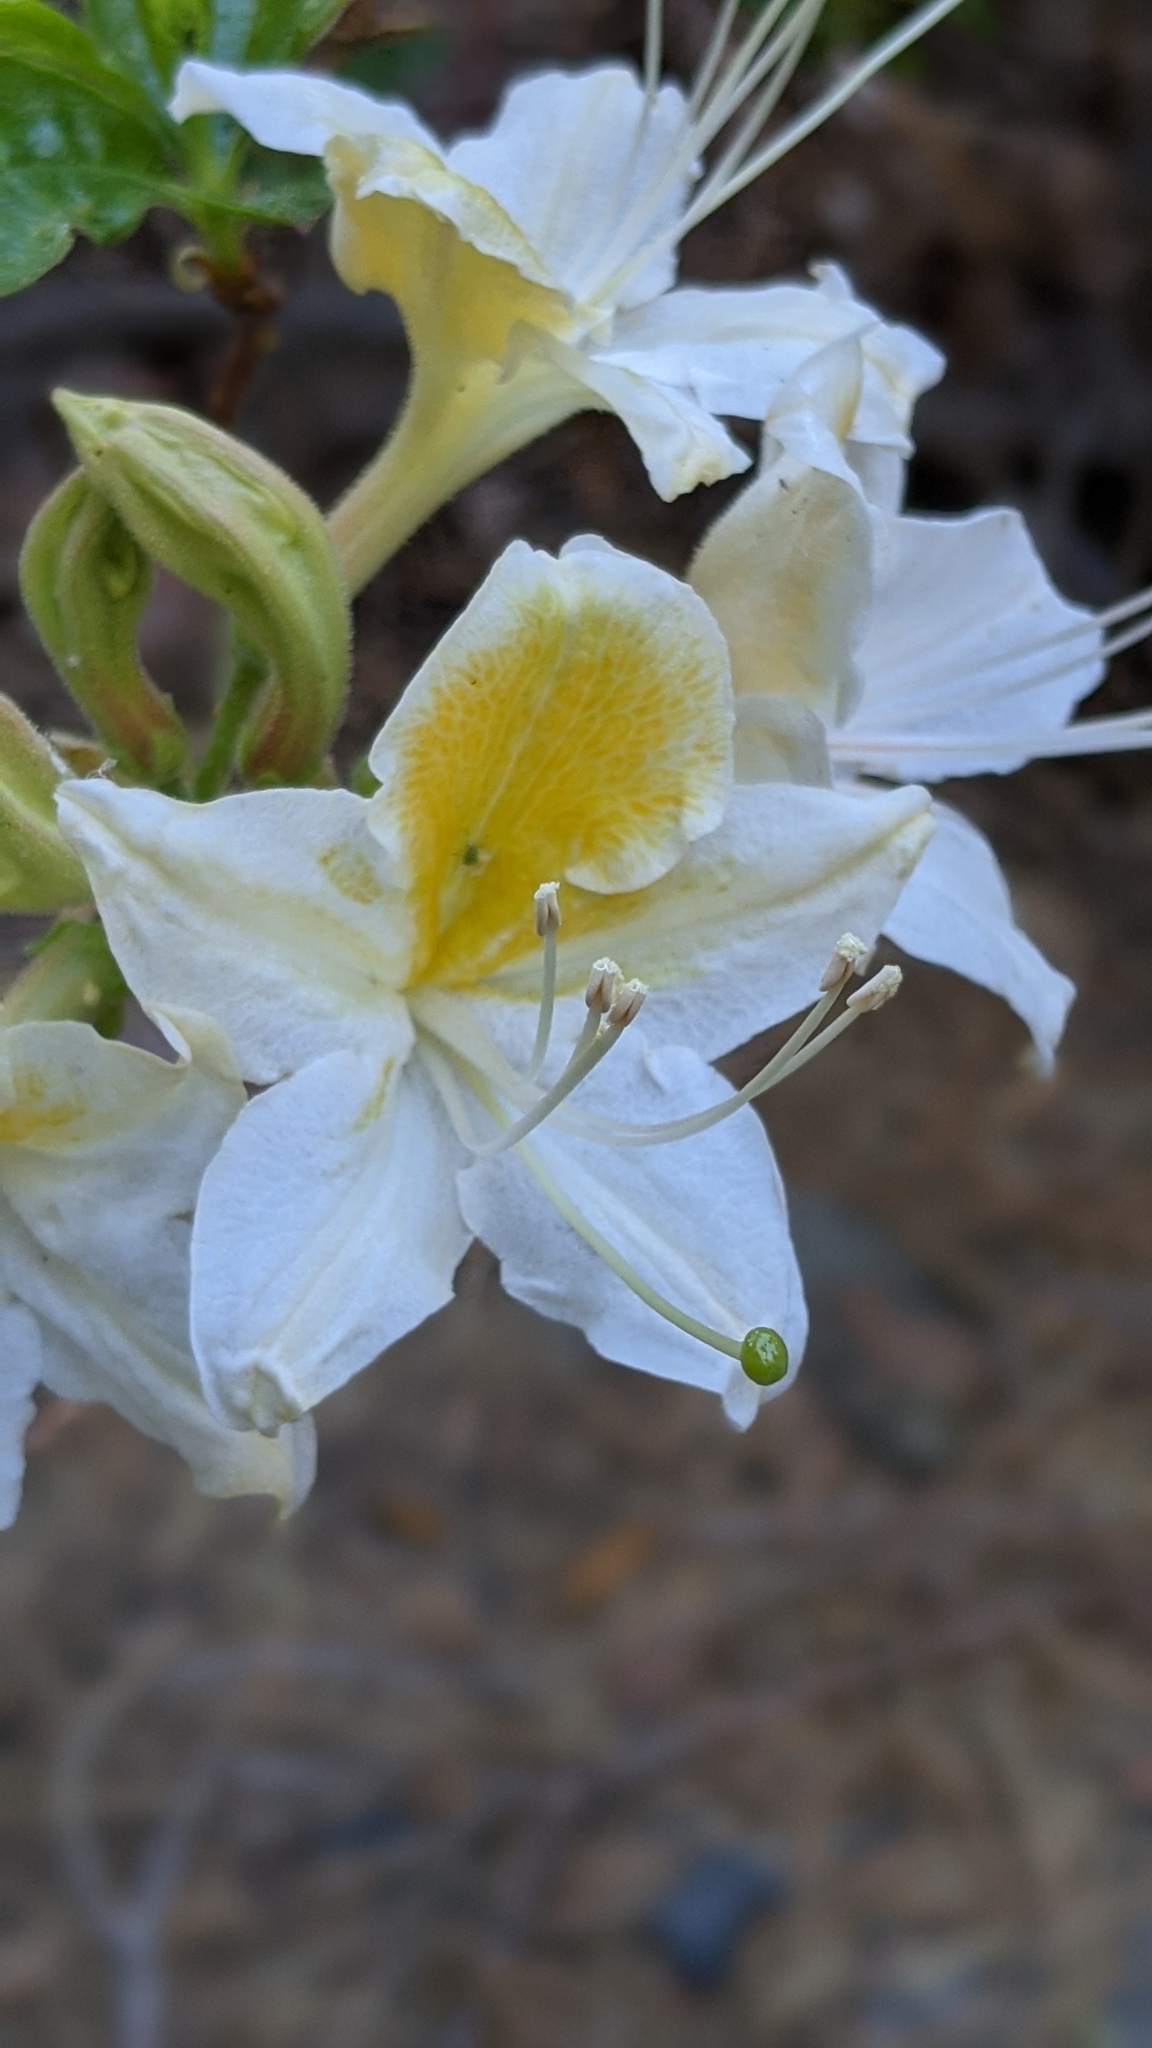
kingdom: Plantae
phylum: Tracheophyta
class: Magnoliopsida
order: Ericales
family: Ericaceae
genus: Rhododendron
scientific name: Rhododendron occidentale
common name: Western azalea
